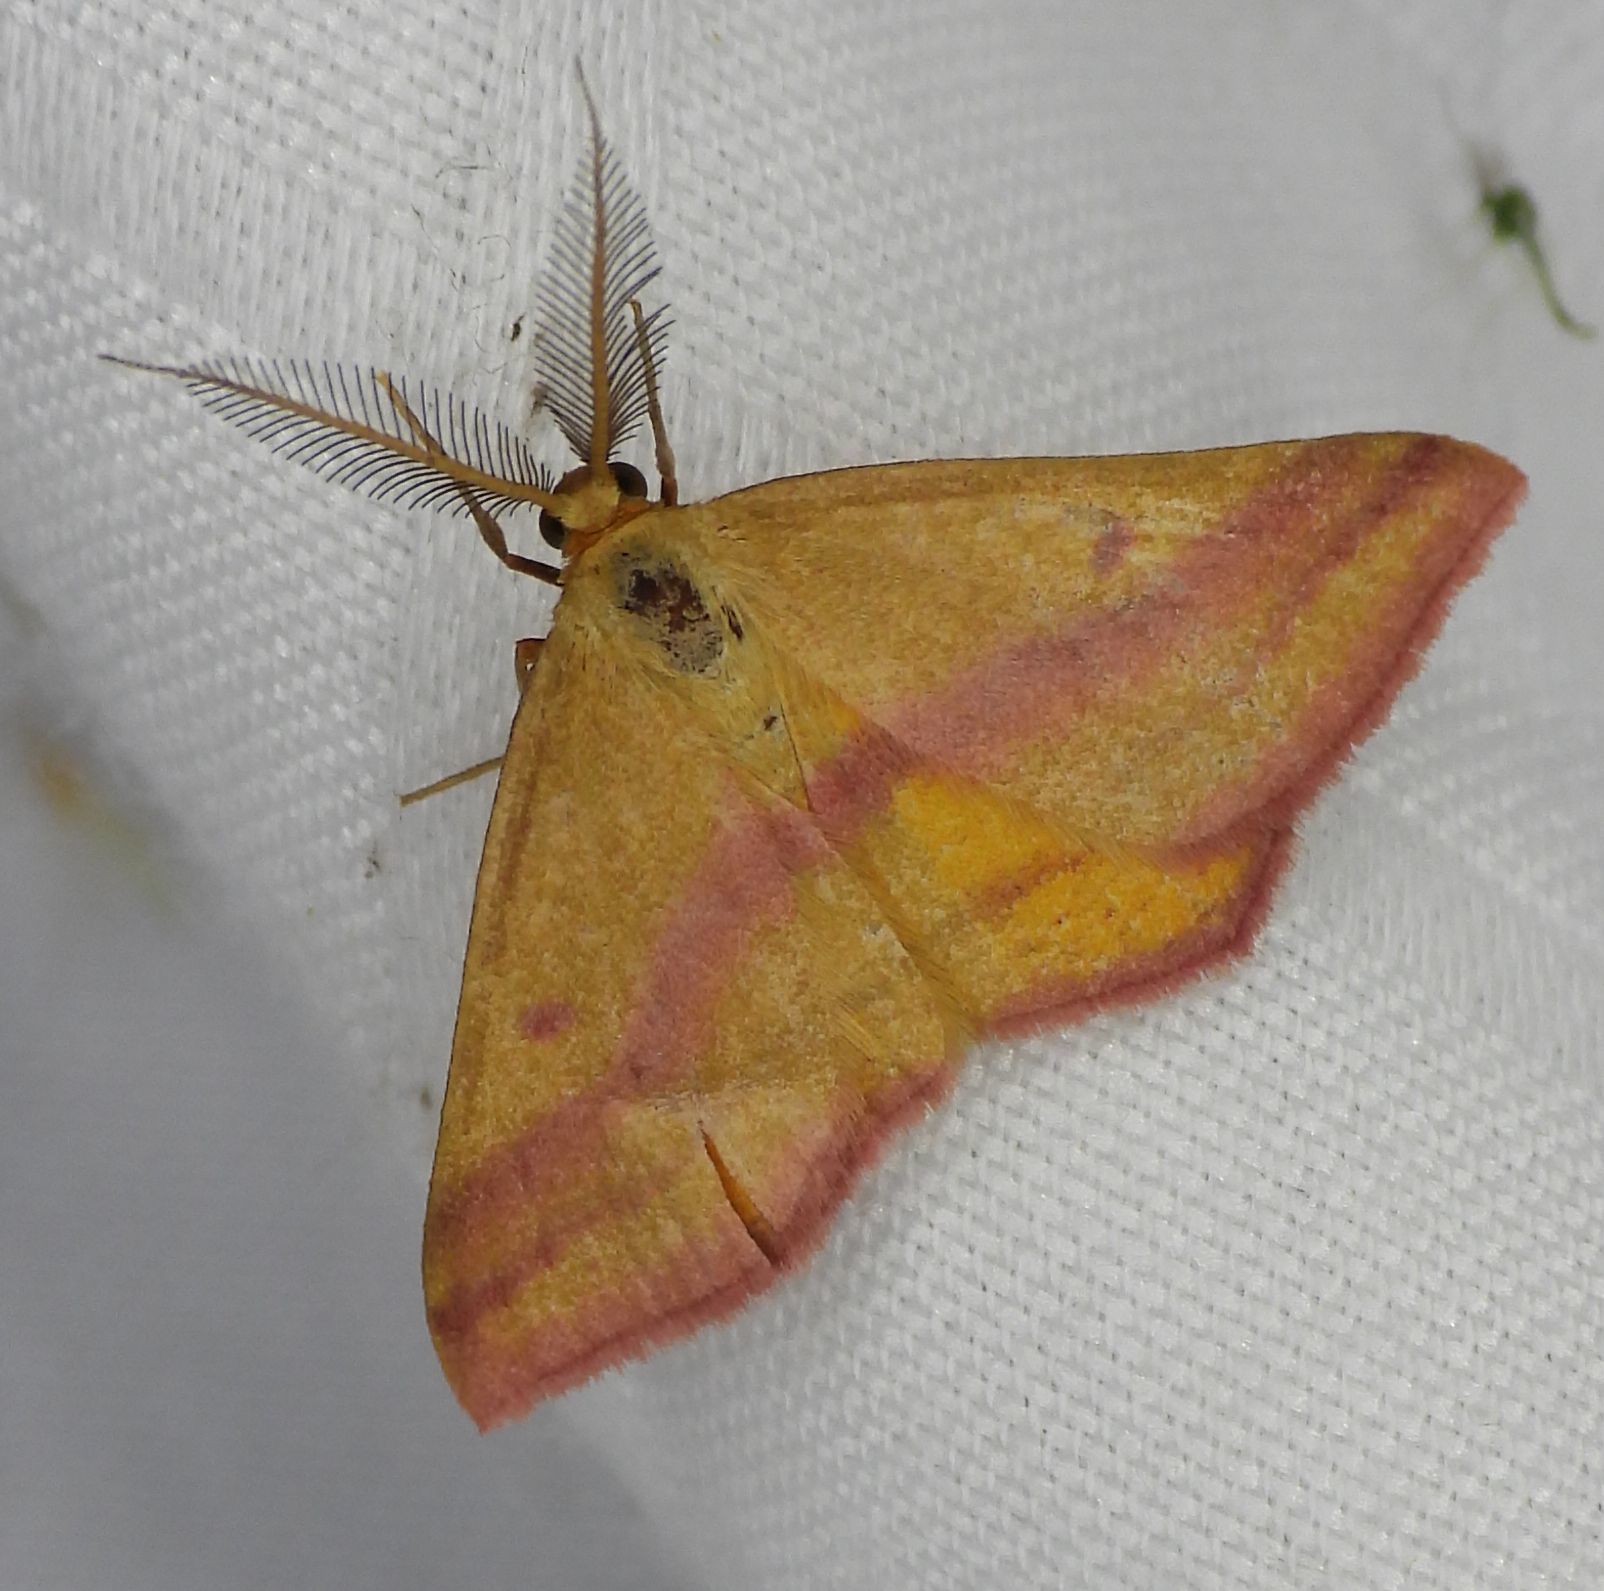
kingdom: Animalia
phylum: Arthropoda
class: Insecta
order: Lepidoptera
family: Geometridae
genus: Haematopis
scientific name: Haematopis grataria
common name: Chickweed geometer
